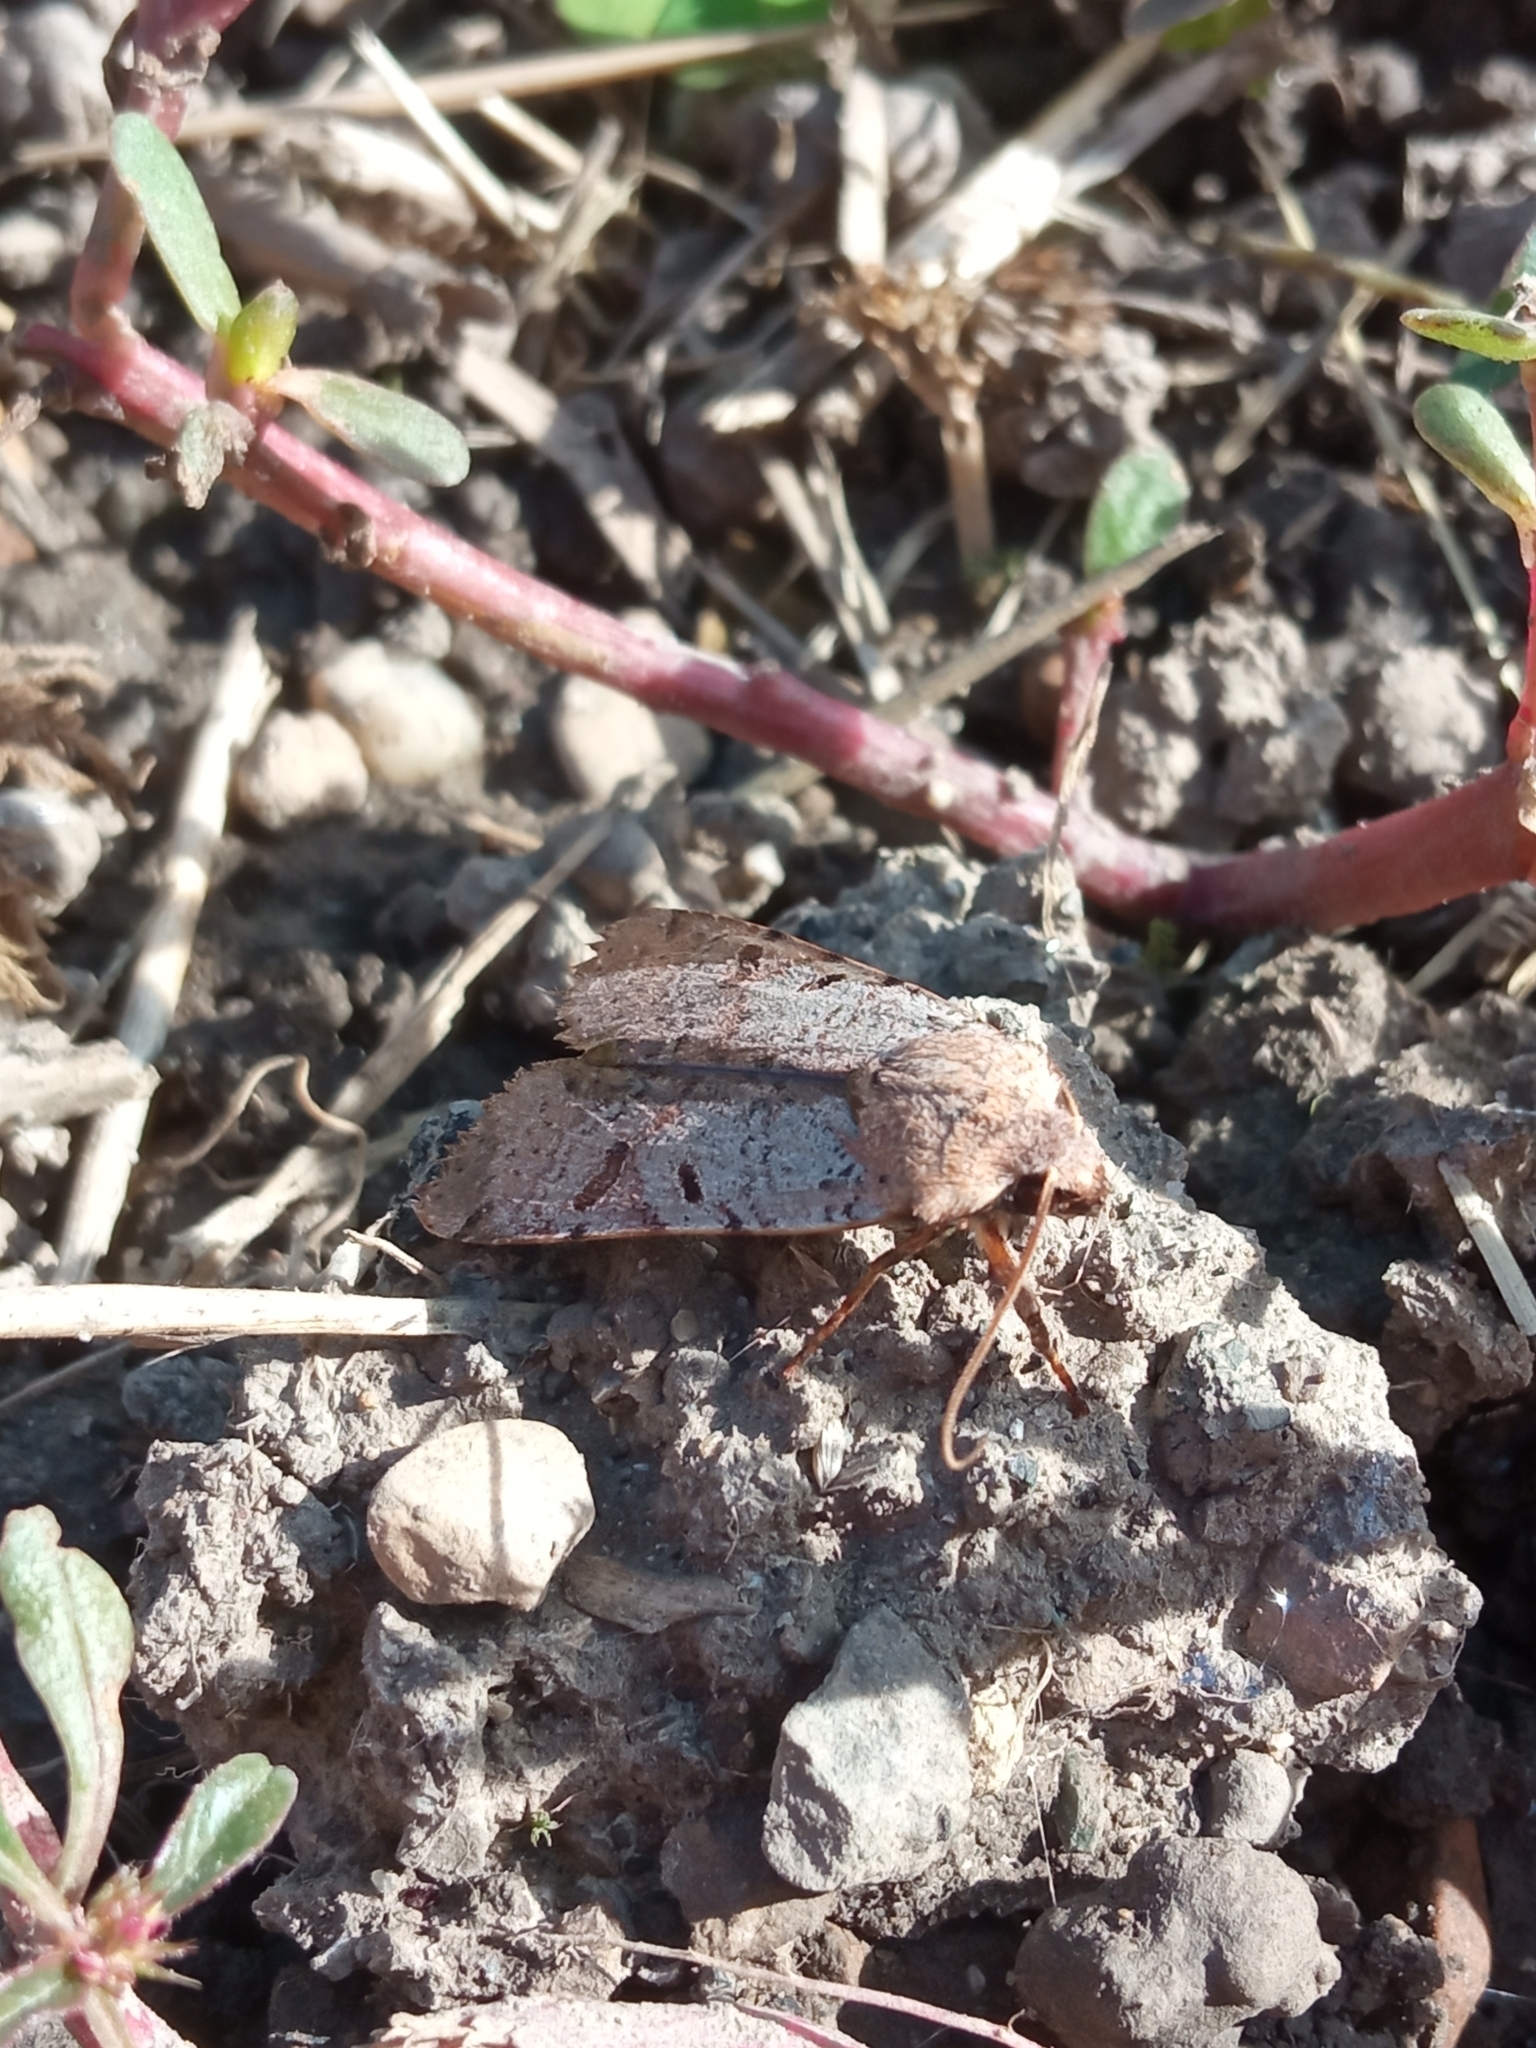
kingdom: Animalia
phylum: Arthropoda
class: Insecta
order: Lepidoptera
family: Noctuidae
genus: Agrochola
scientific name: Agrochola lychnidis
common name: Beaded chestnut
